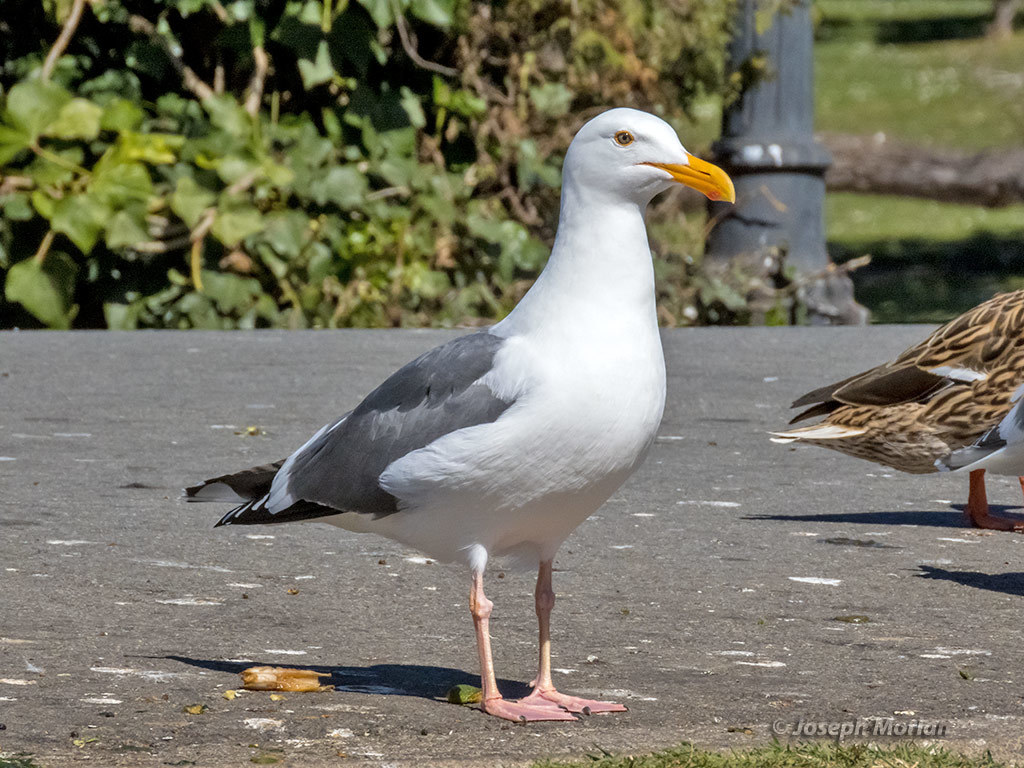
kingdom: Animalia
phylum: Chordata
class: Aves
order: Charadriiformes
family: Laridae
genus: Larus
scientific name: Larus occidentalis
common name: Western gull
